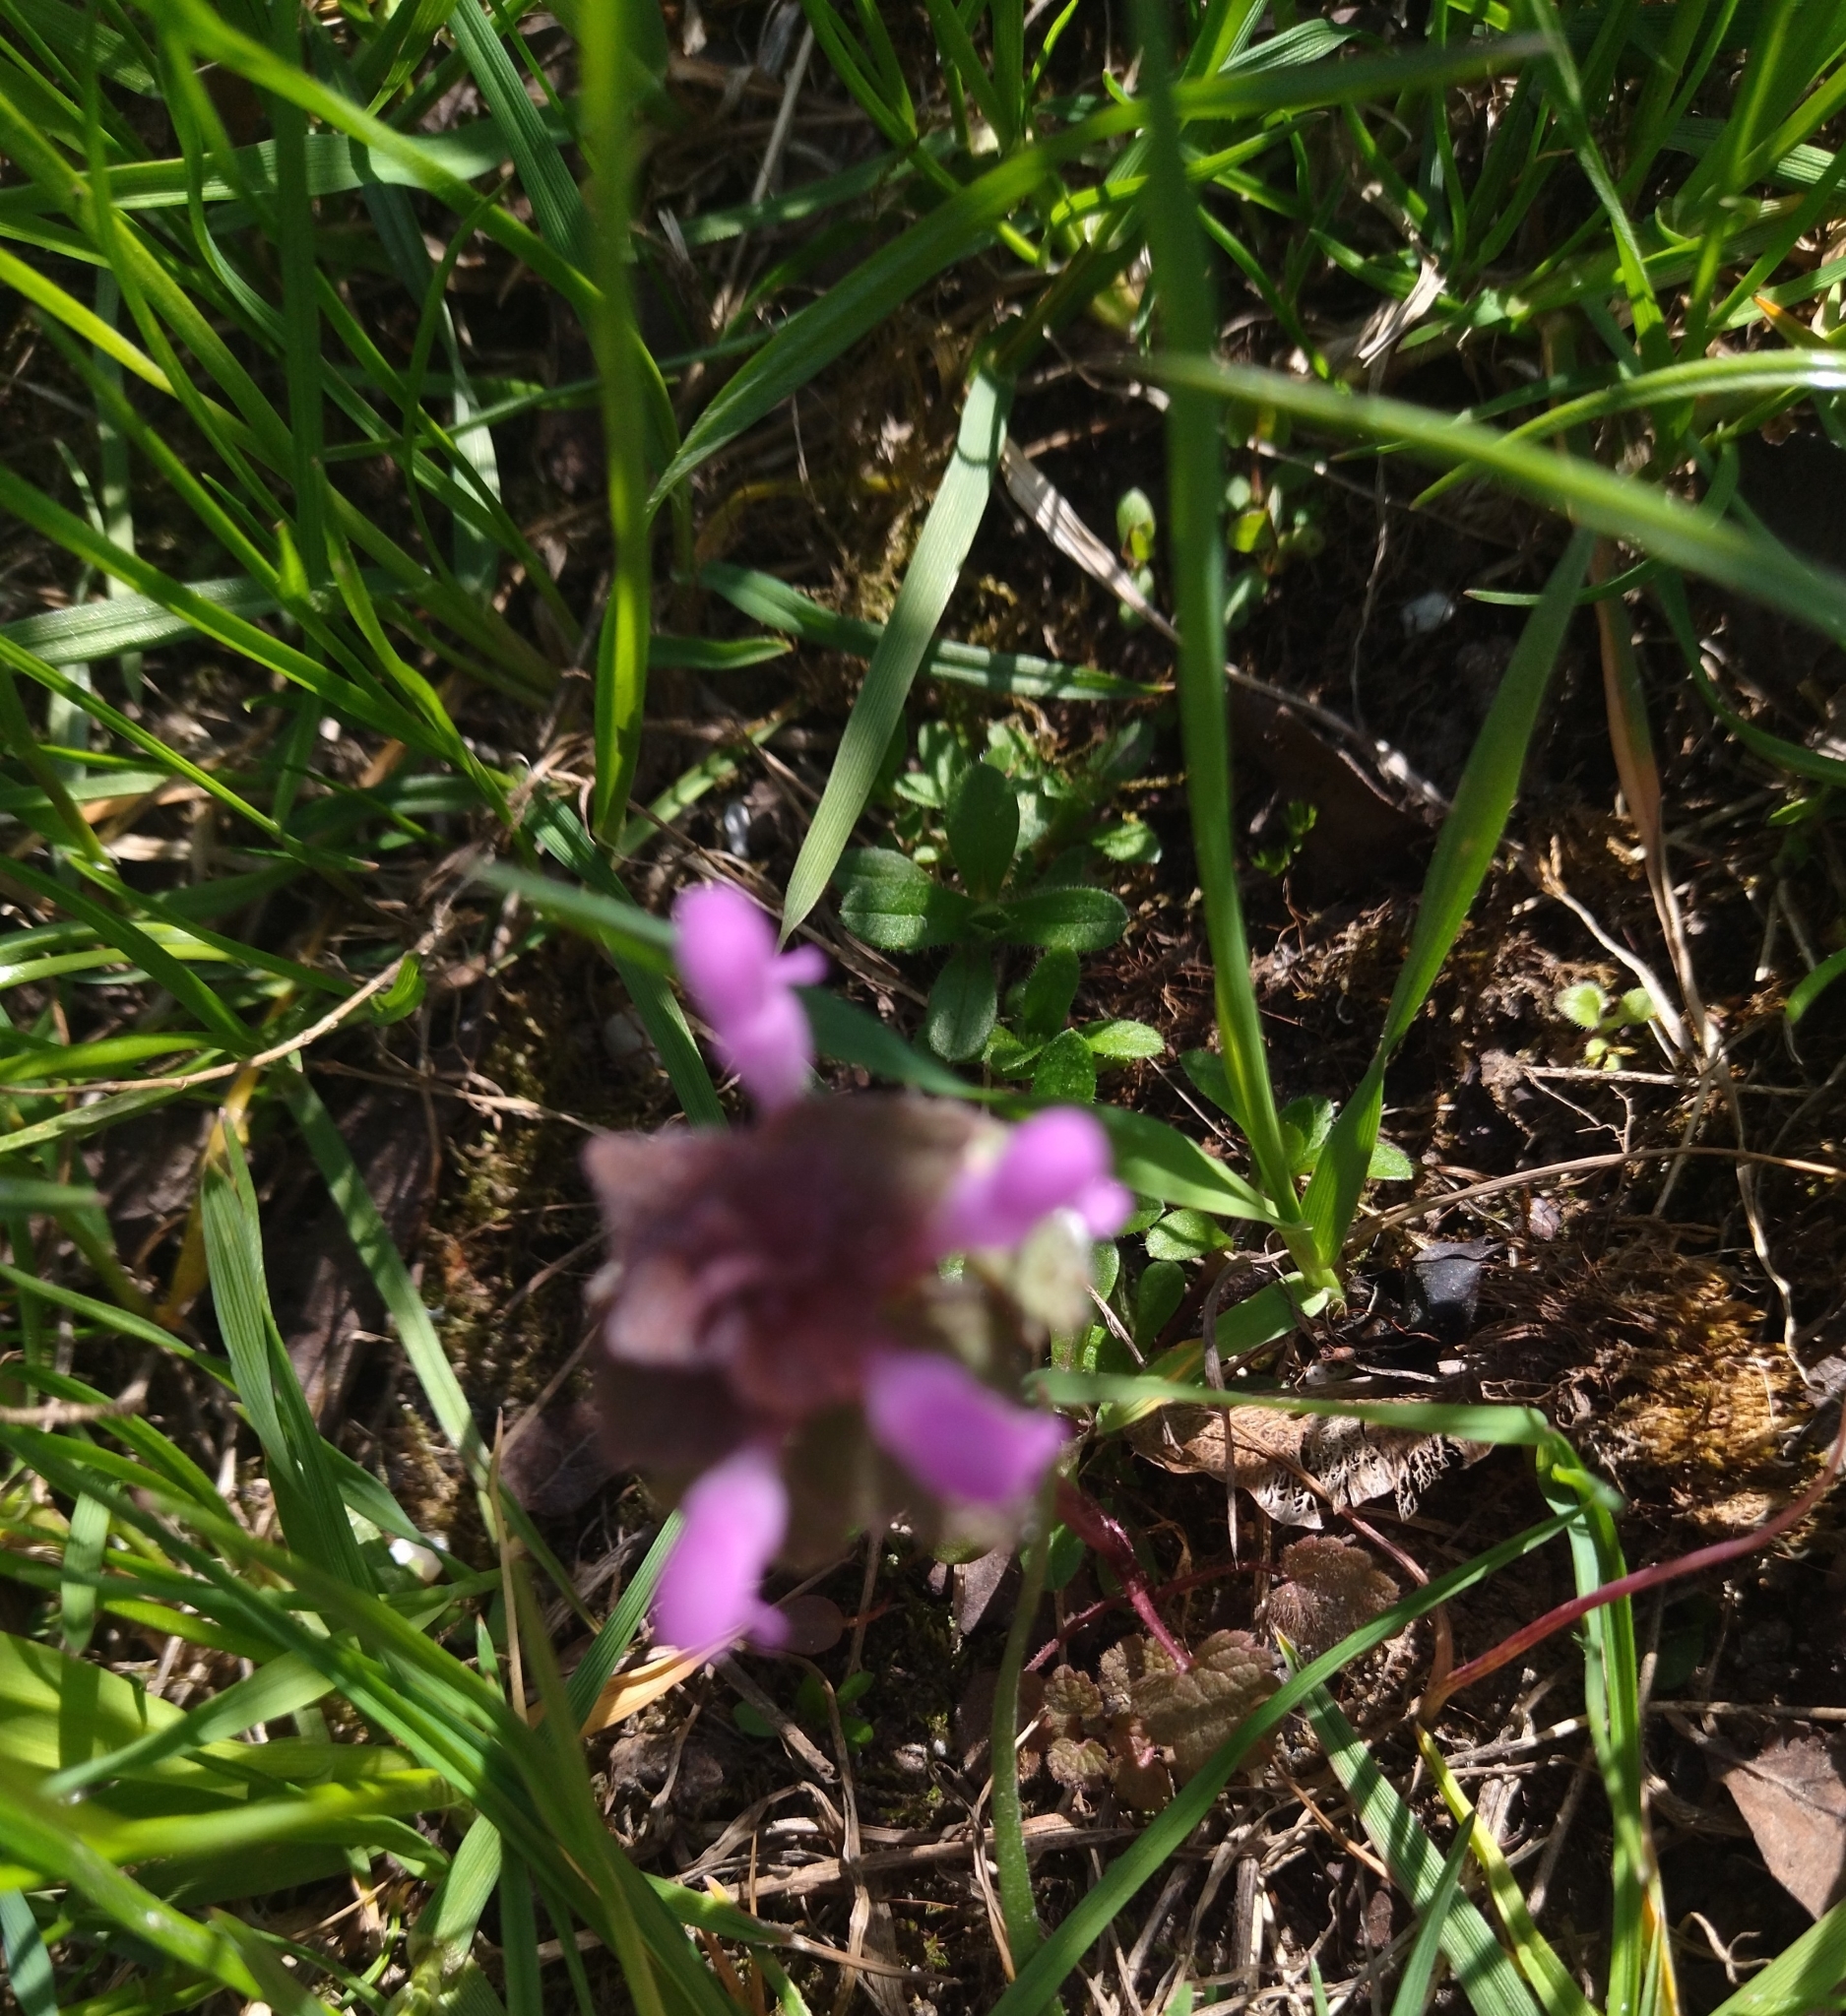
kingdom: Plantae
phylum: Tracheophyta
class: Magnoliopsida
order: Lamiales
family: Lamiaceae
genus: Lamium
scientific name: Lamium purpureum
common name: Red dead-nettle
